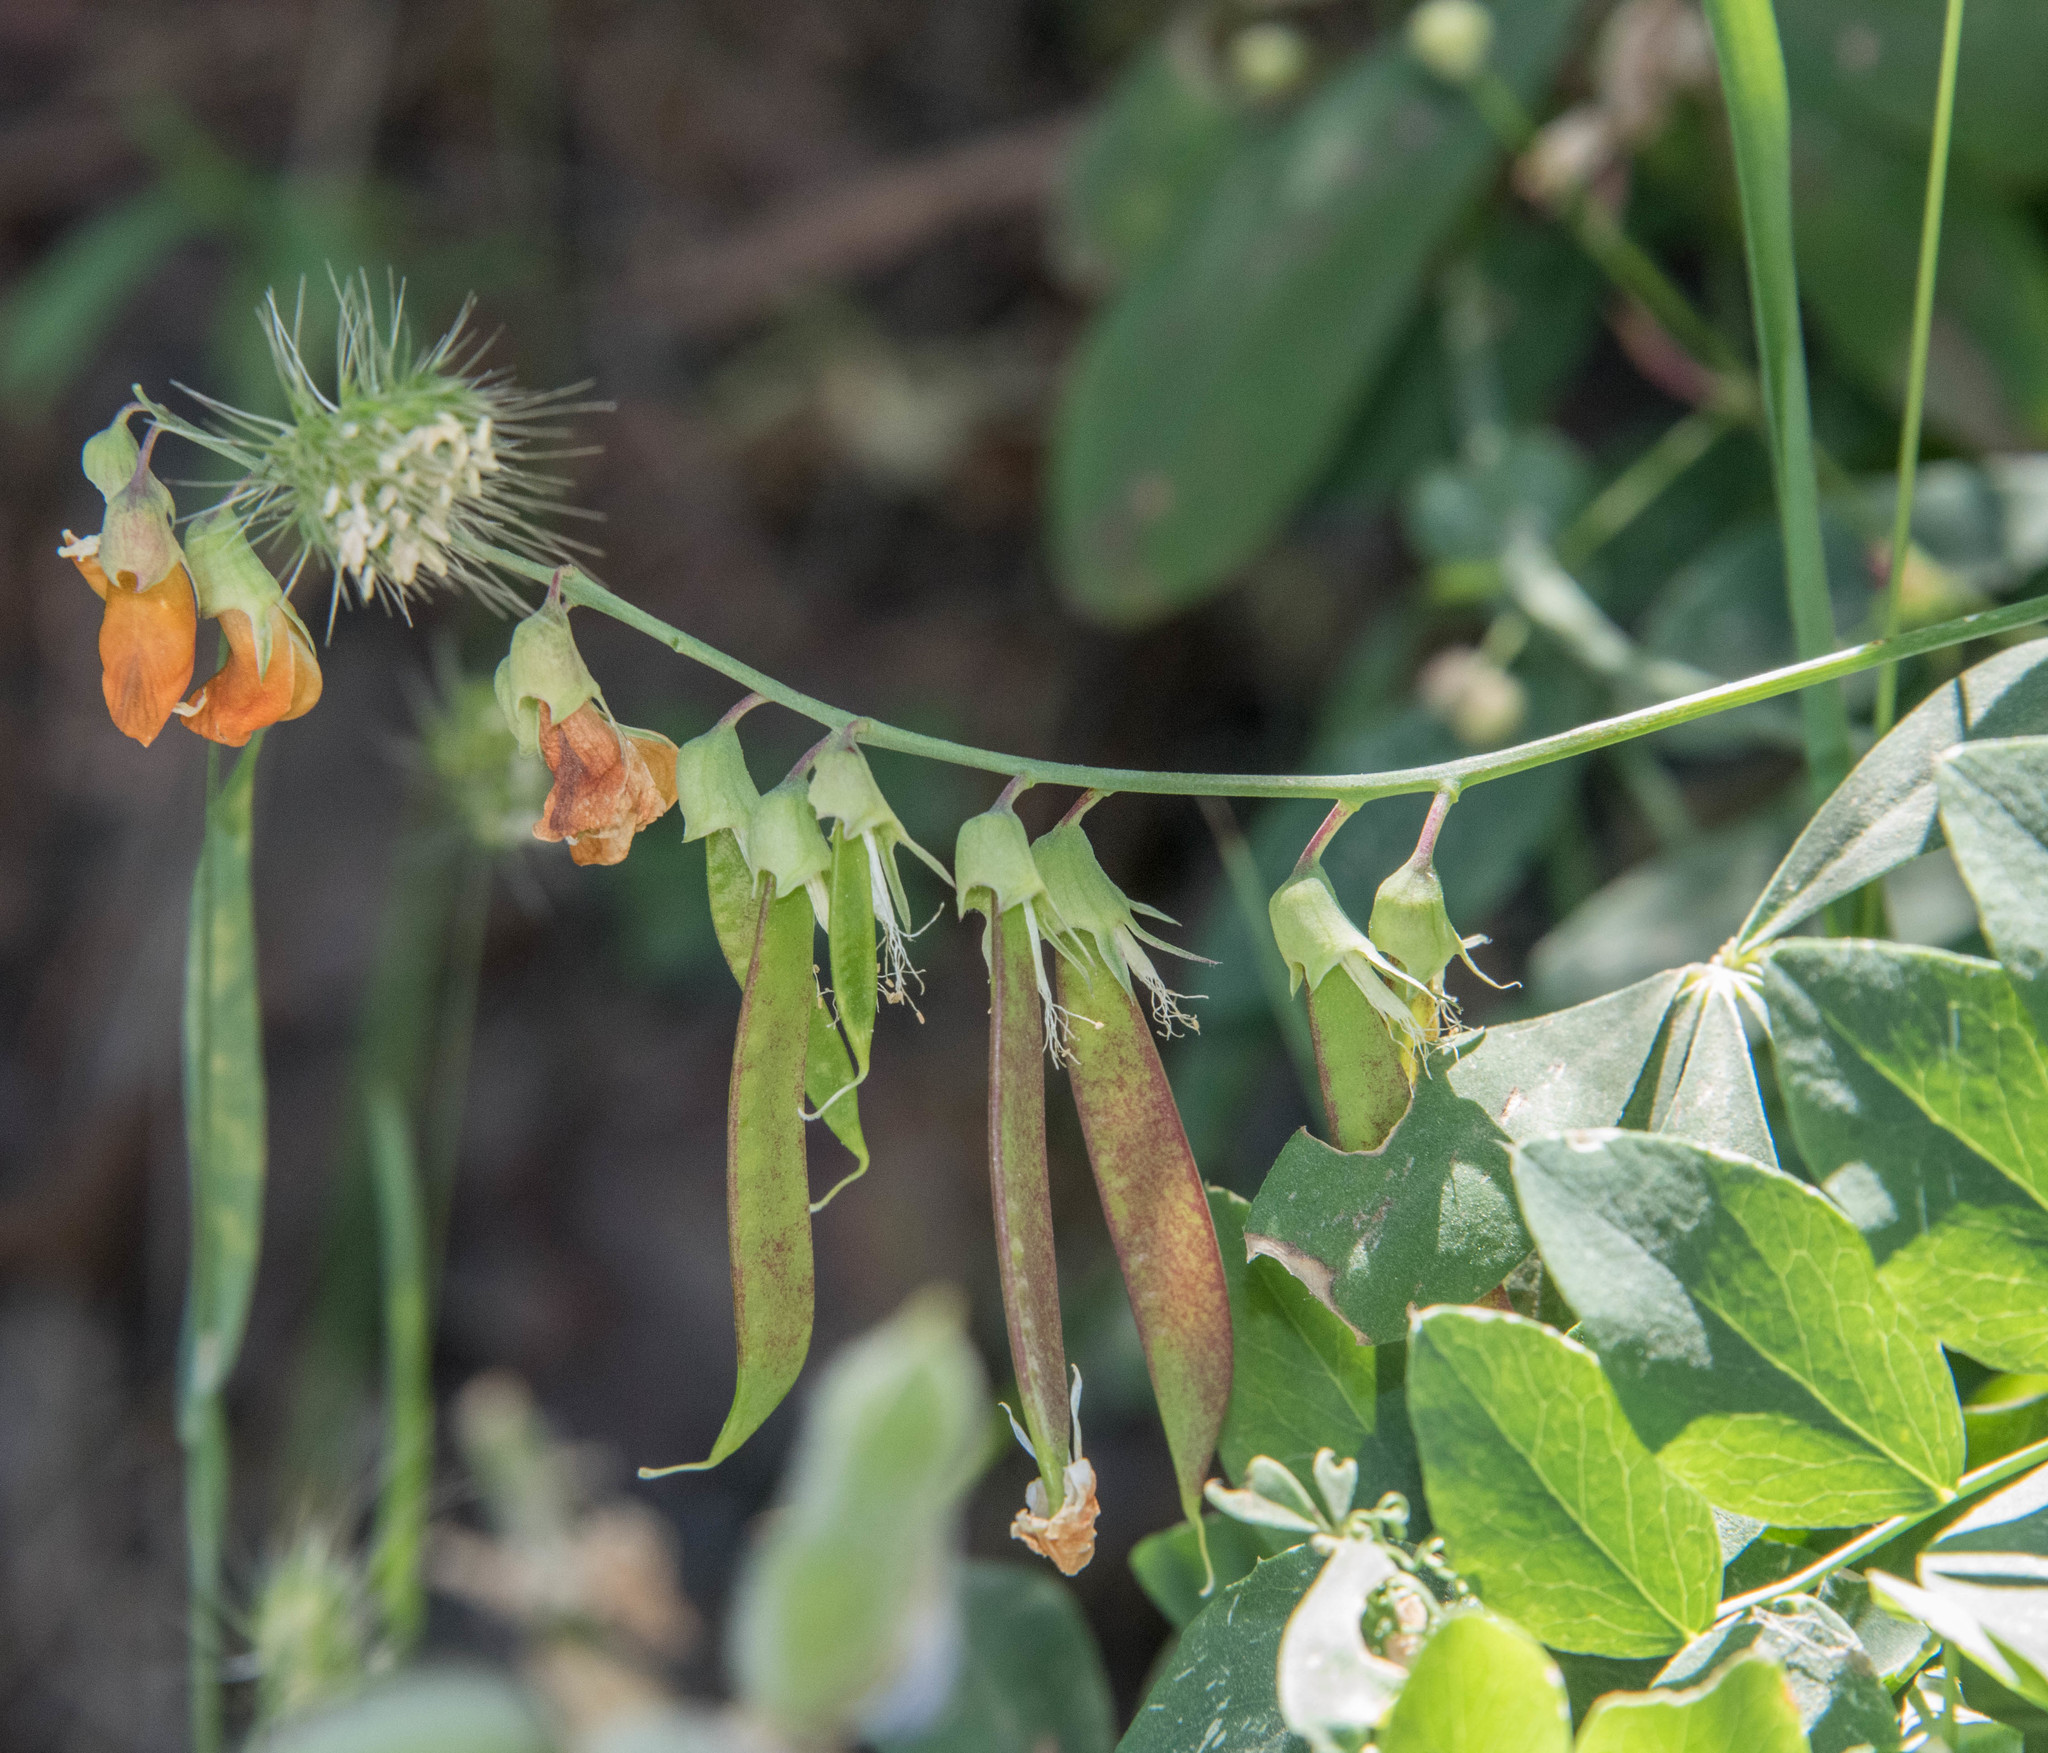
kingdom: Plantae
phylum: Tracheophyta
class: Magnoliopsida
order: Fabales
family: Fabaceae
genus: Lathyrus
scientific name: Lathyrus sulphureus
